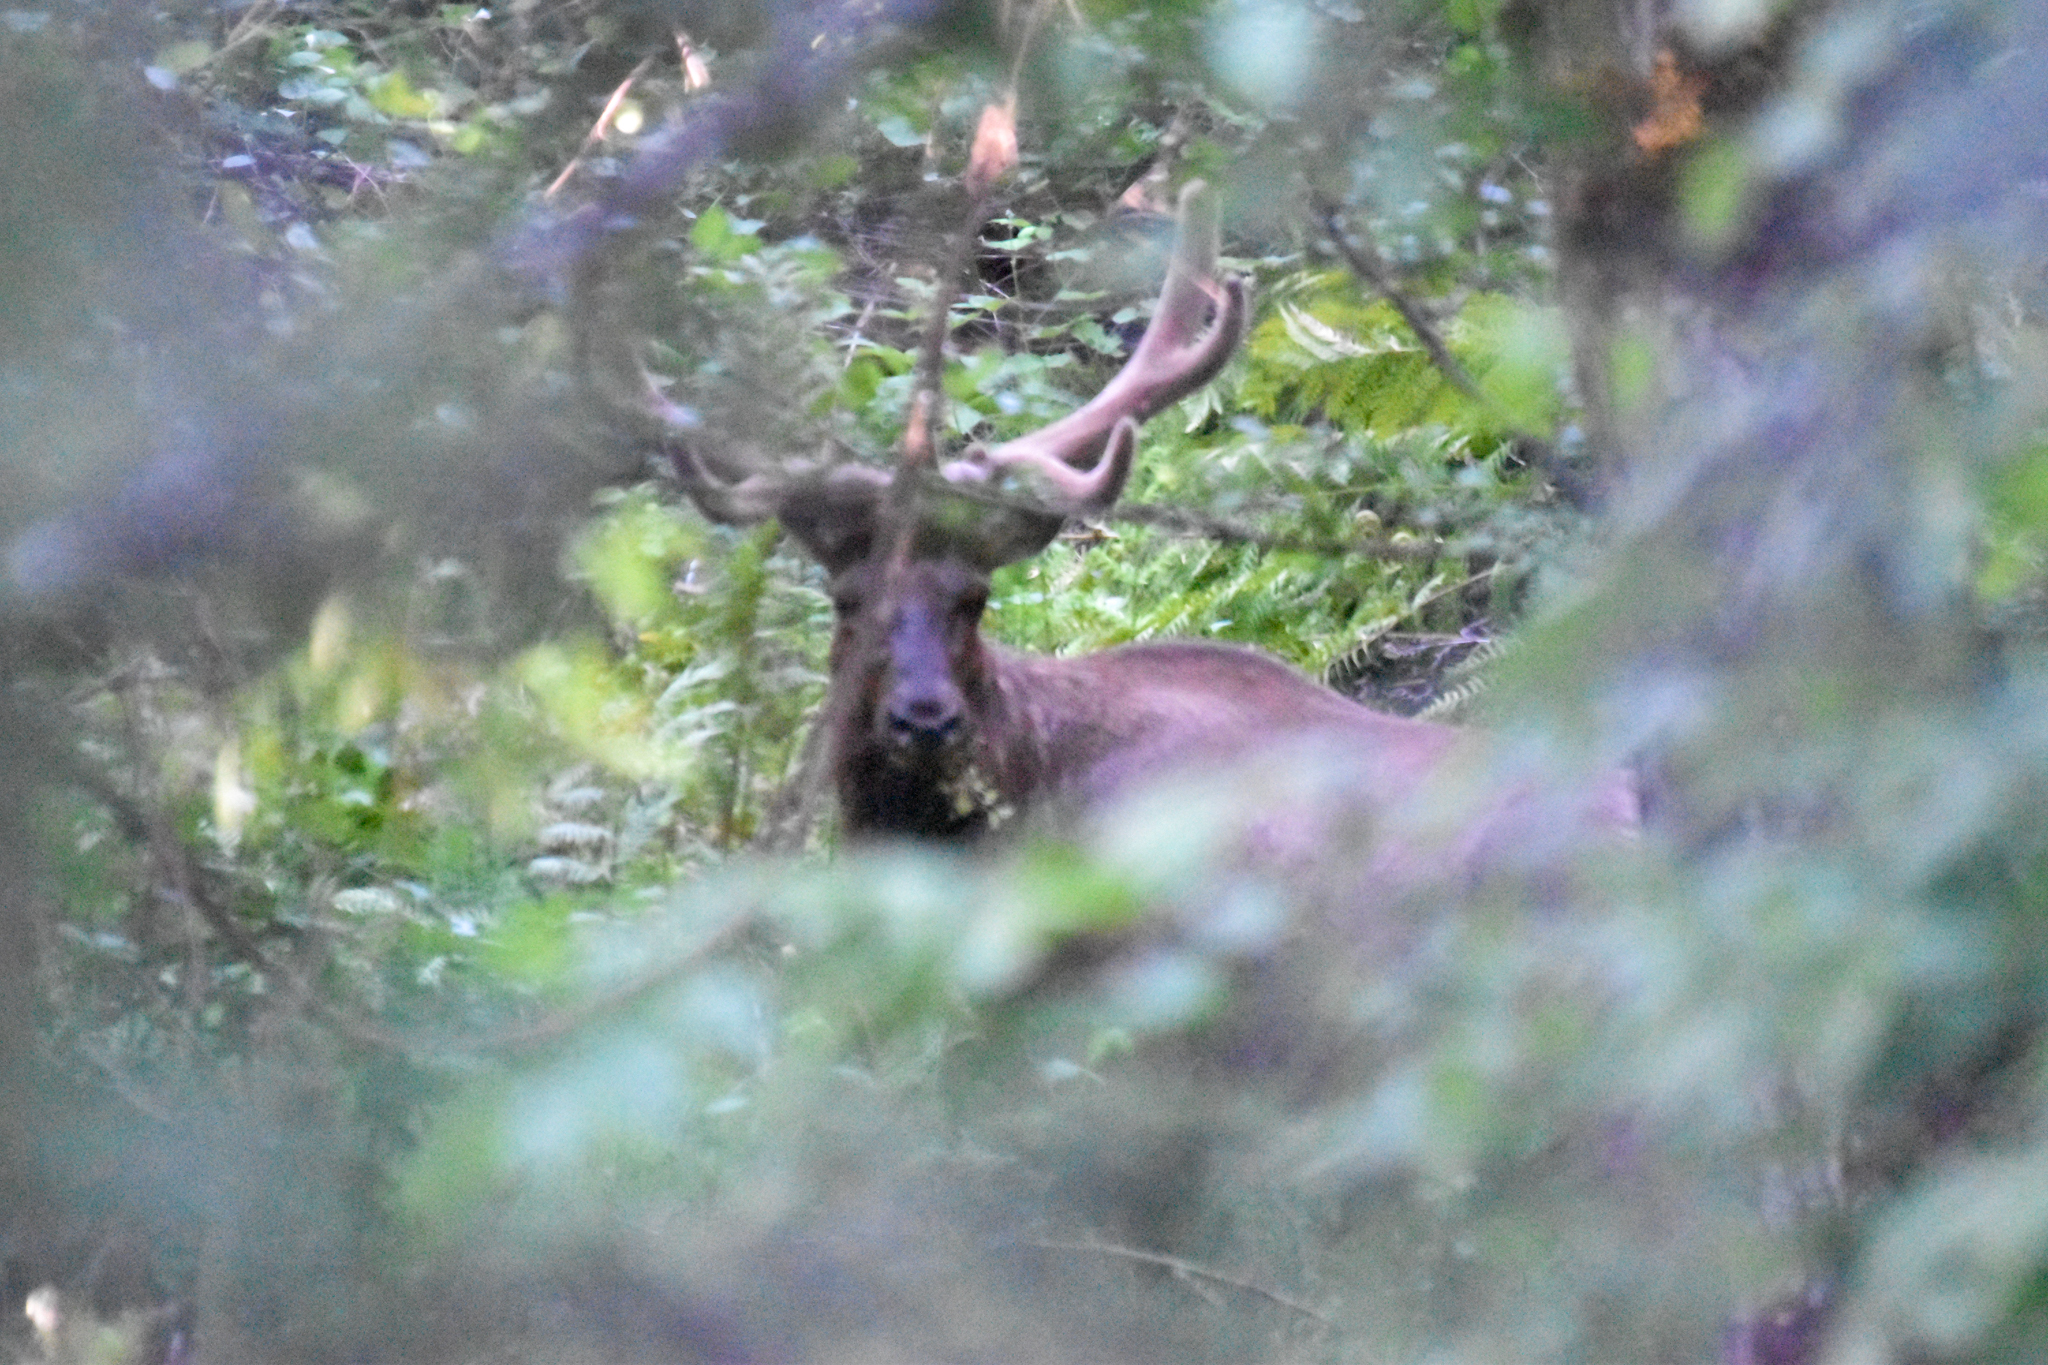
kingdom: Animalia
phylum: Chordata
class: Mammalia
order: Artiodactyla
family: Cervidae
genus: Cervus
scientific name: Cervus elaphus
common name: Red deer
